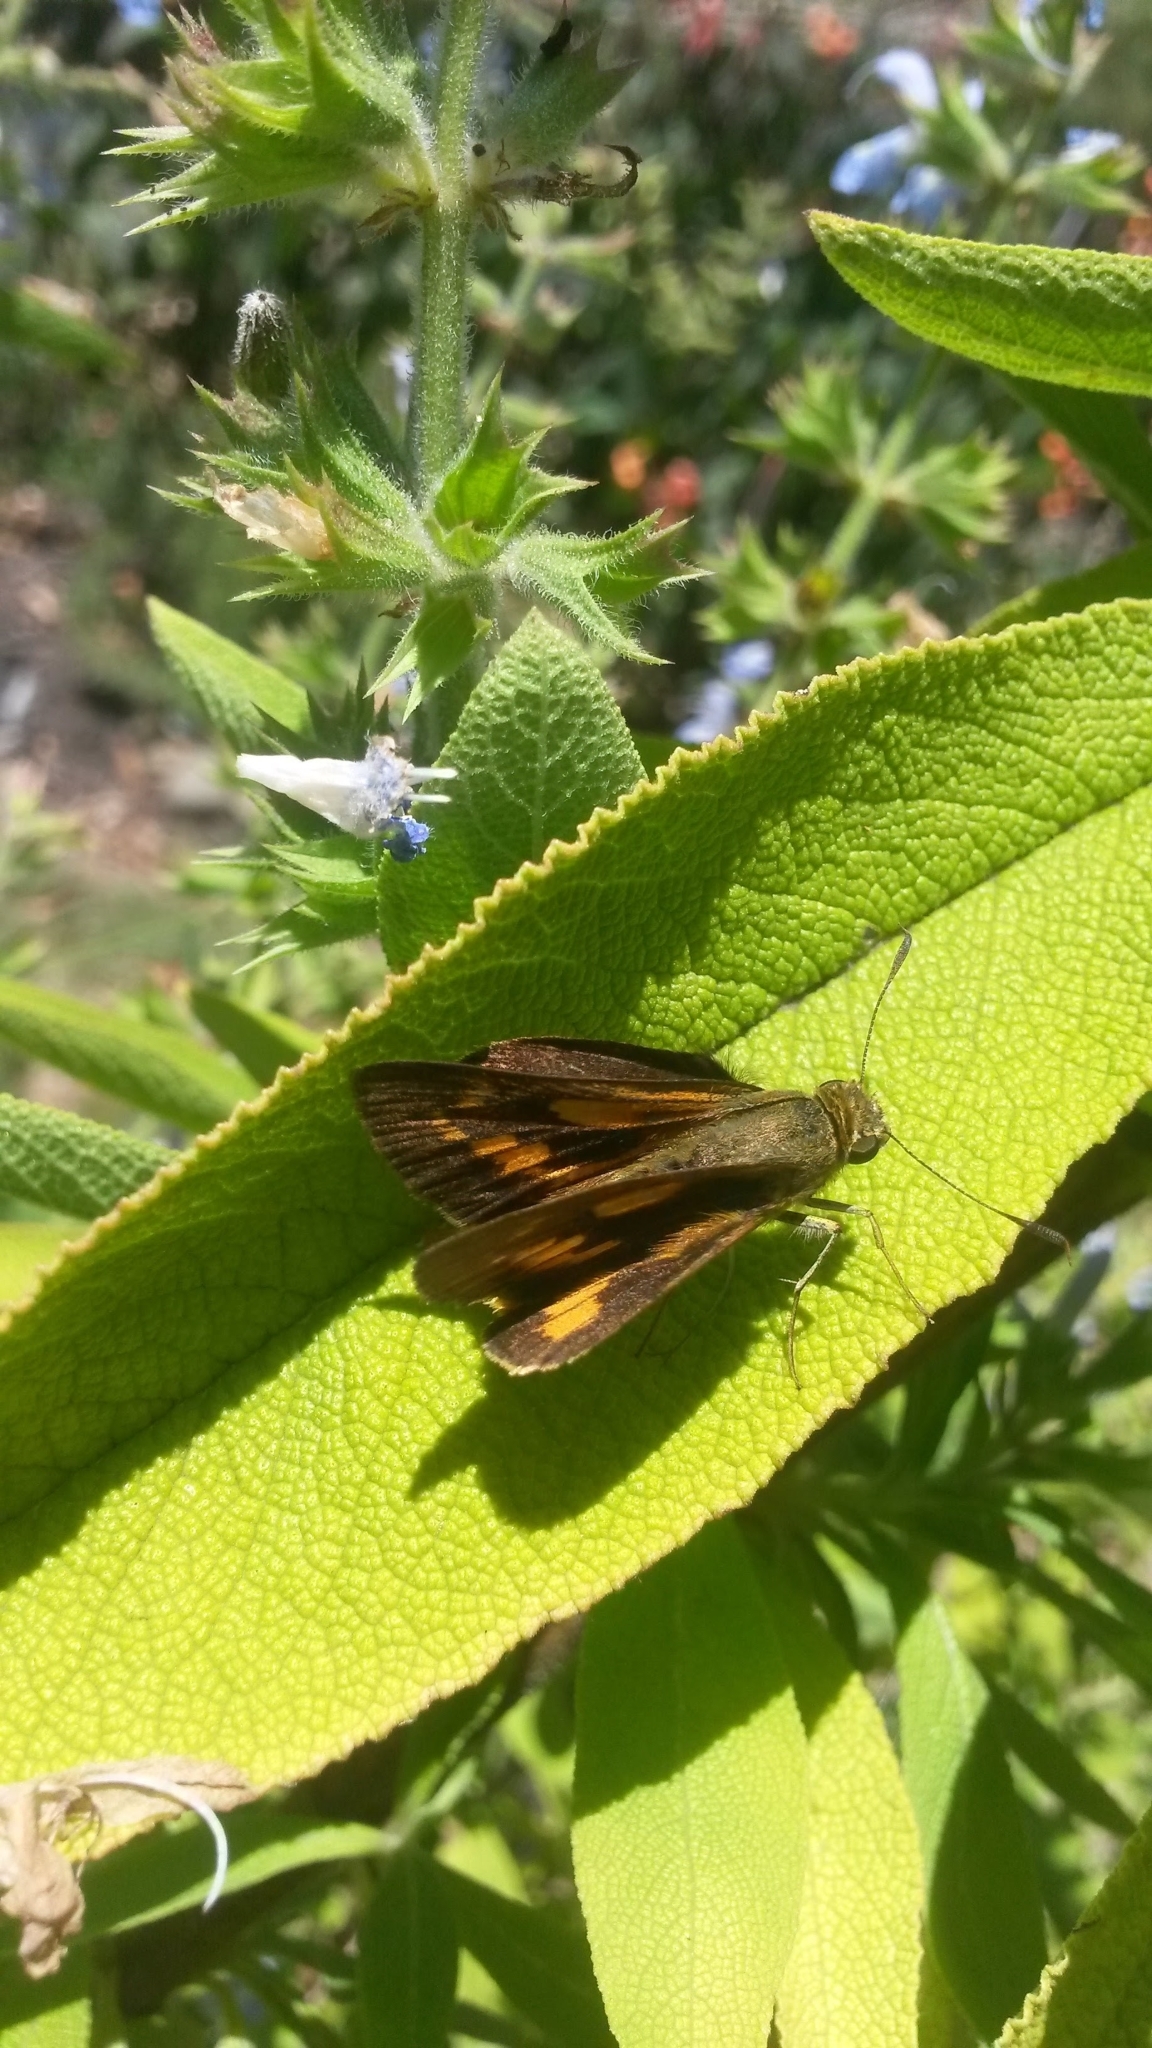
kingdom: Animalia
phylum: Arthropoda
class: Insecta
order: Lepidoptera
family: Hesperiidae
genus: Cephrenes
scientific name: Cephrenes augiades
